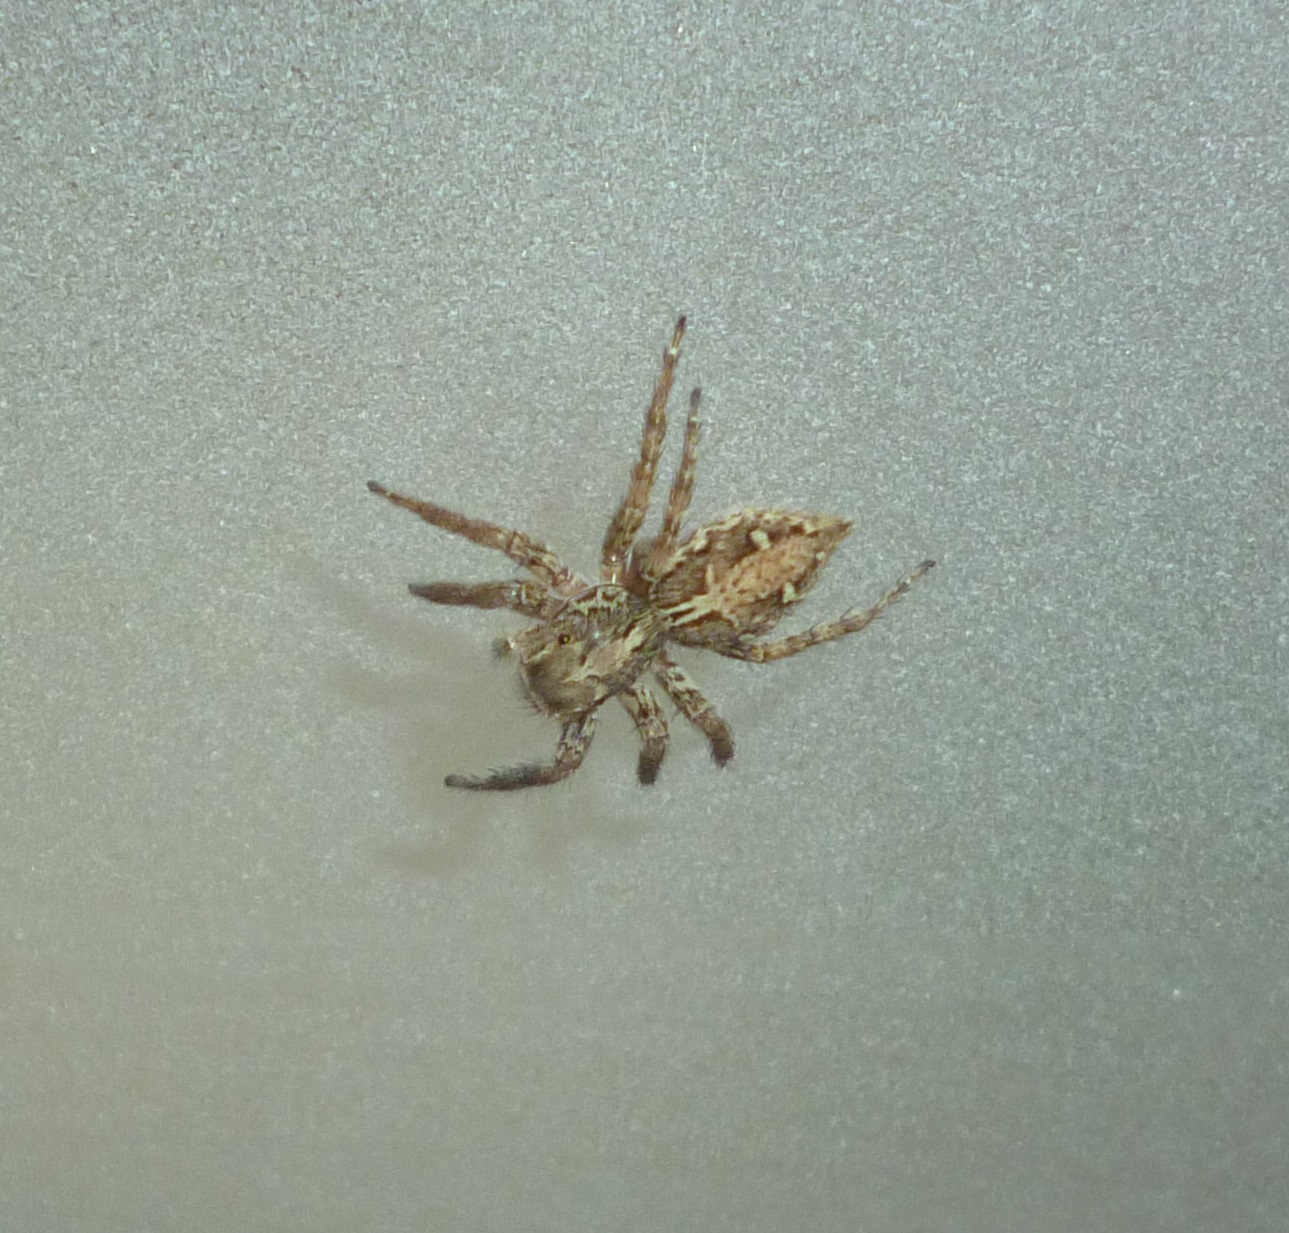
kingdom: Animalia
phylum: Arthropoda
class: Arachnida
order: Araneae
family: Salticidae
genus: Plexippus
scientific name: Plexippus paykulli
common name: Pantropical jumper
